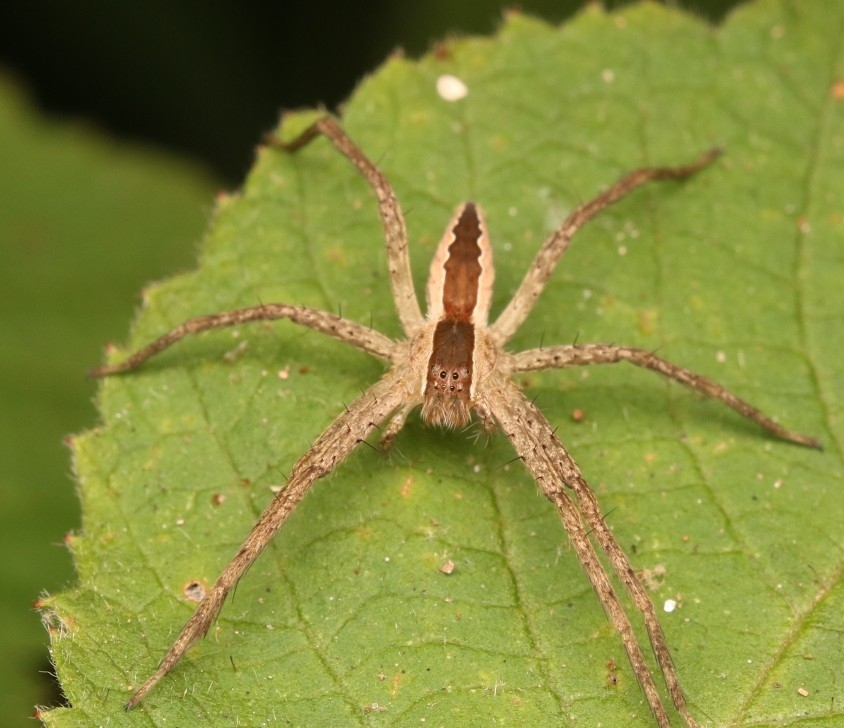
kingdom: Animalia
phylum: Arthropoda
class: Arachnida
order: Araneae
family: Pisauridae
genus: Pisaurina
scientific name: Pisaurina mira
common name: American nursery web spider
